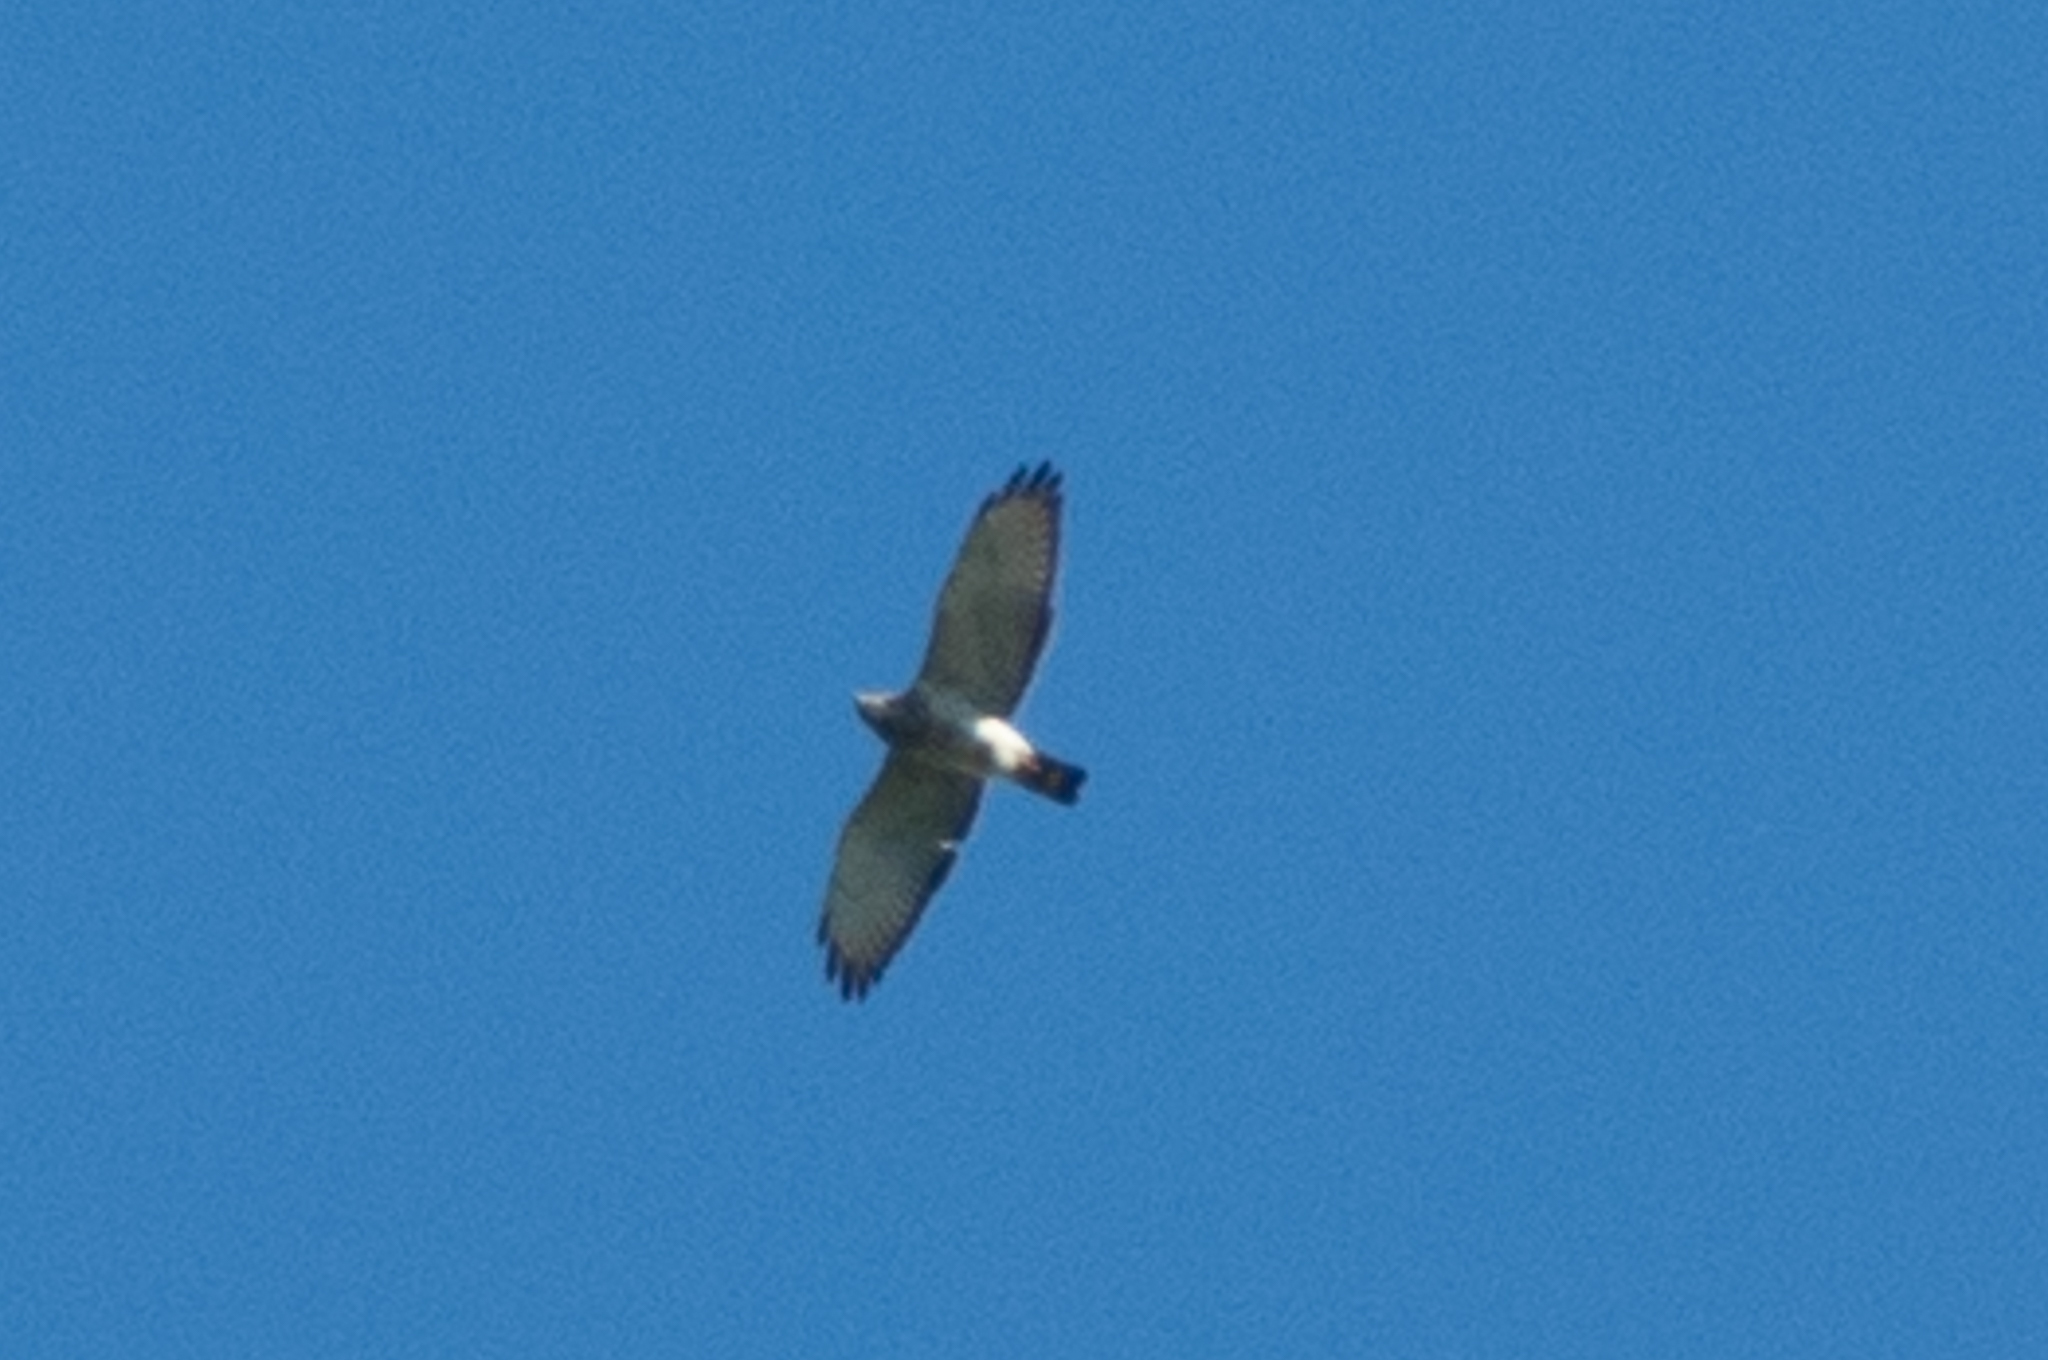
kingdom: Animalia
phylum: Chordata
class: Aves
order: Accipitriformes
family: Accipitridae
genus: Buteo
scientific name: Buteo platypterus
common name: Broad-winged hawk
